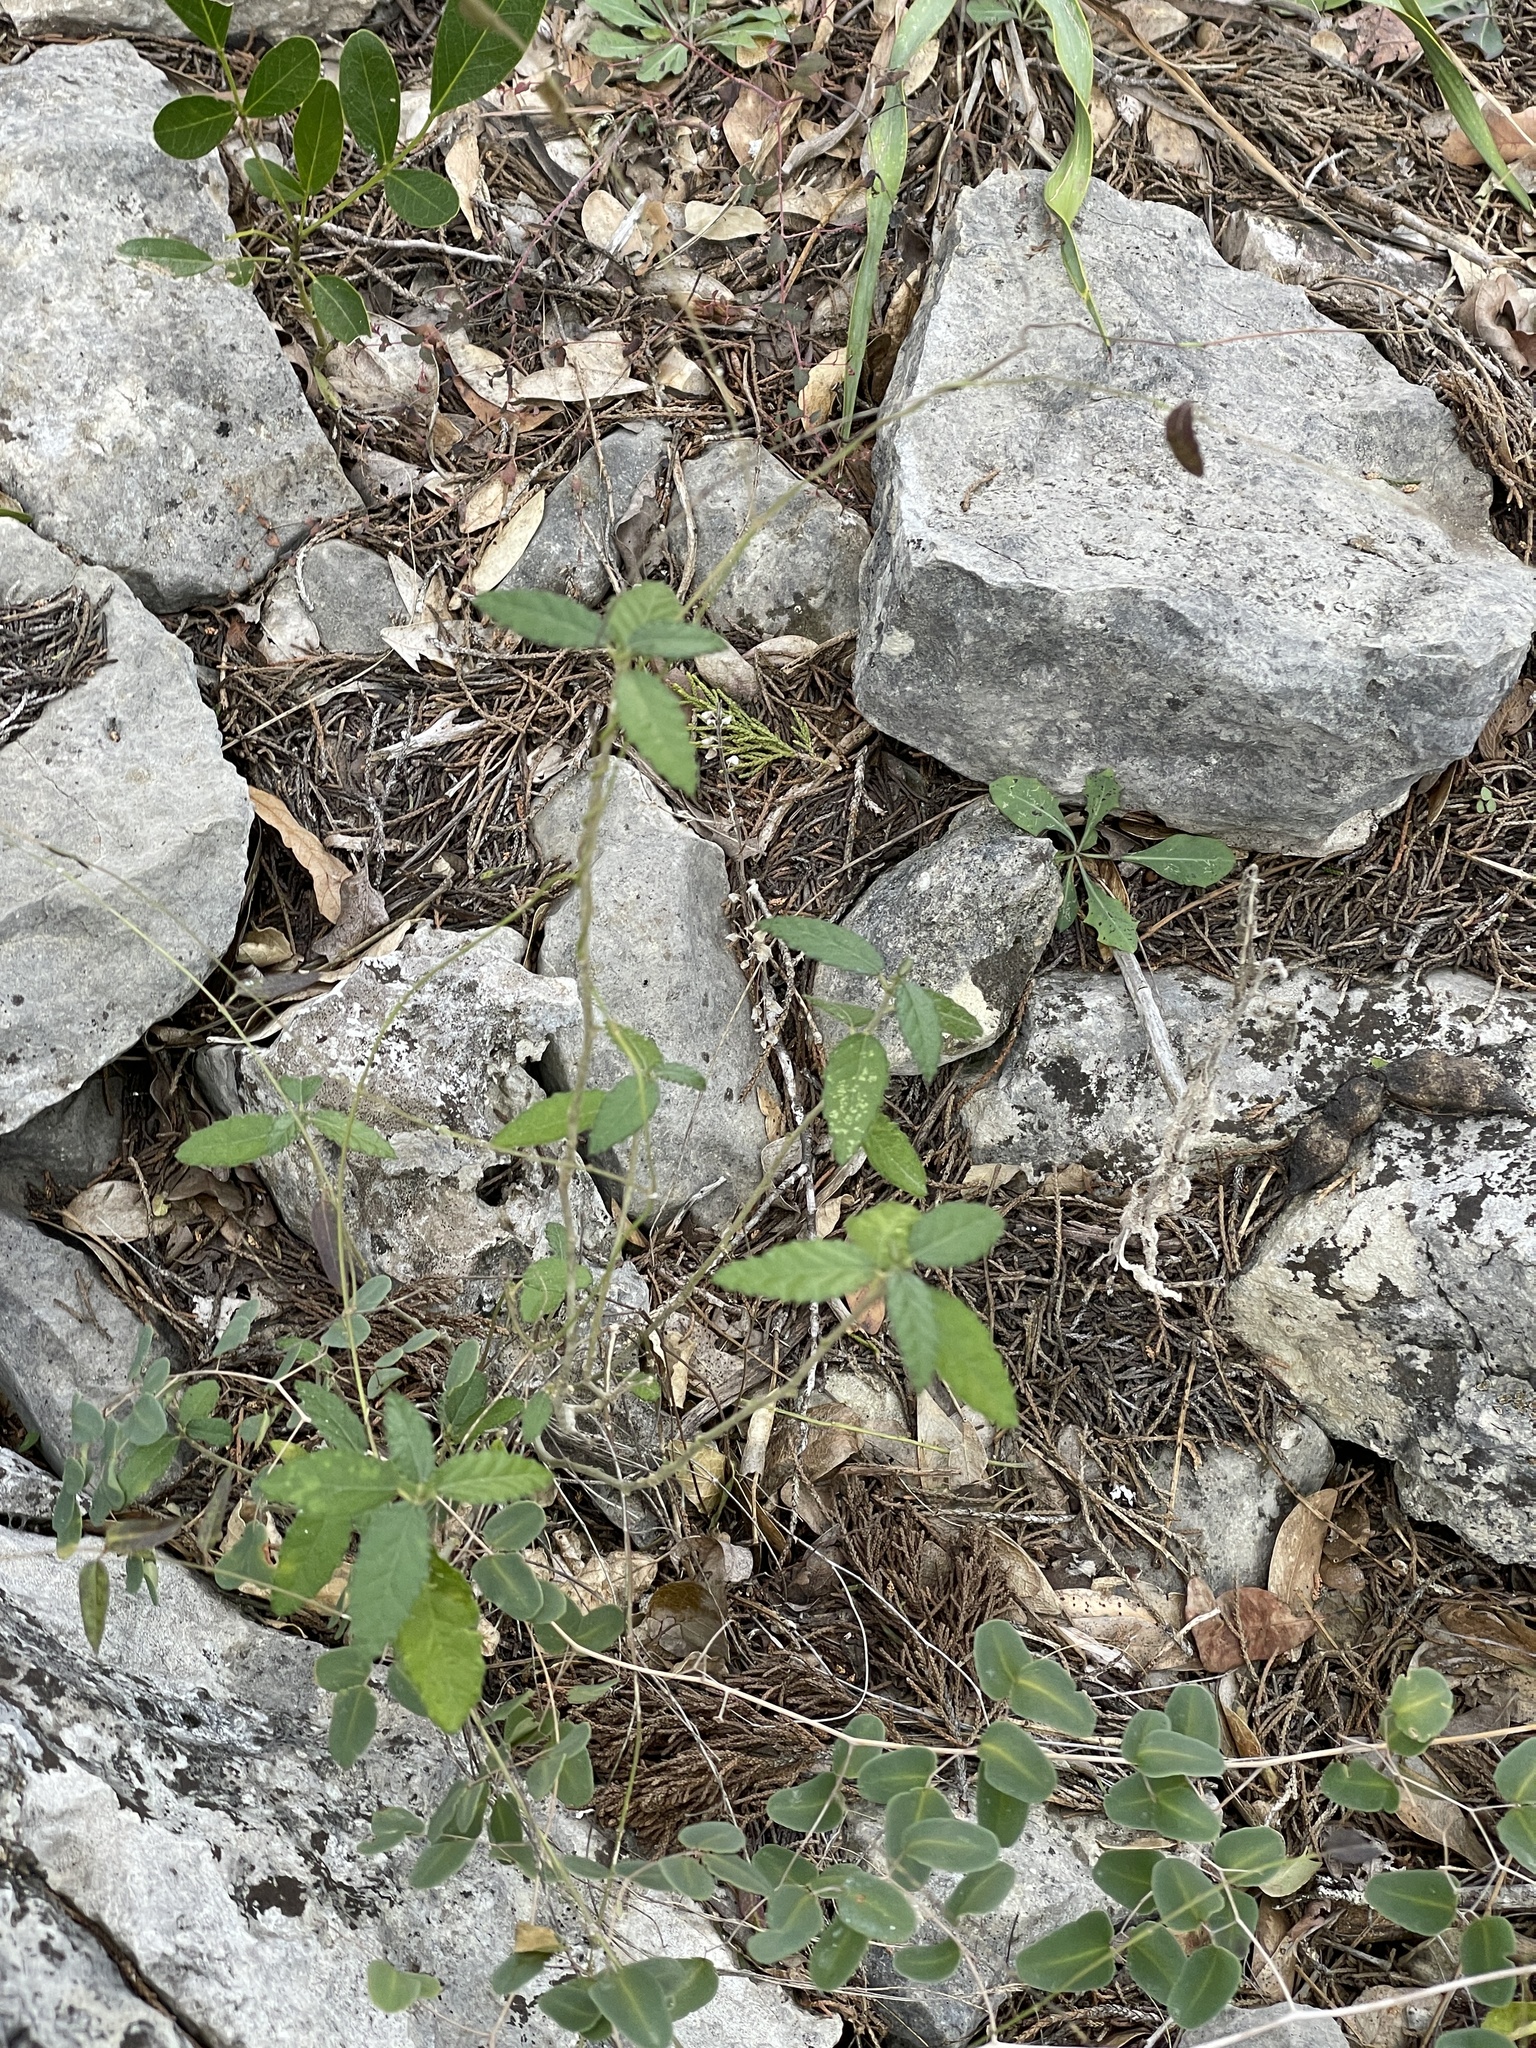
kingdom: Plantae
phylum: Tracheophyta
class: Magnoliopsida
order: Malpighiales
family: Euphorbiaceae
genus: Bernardia
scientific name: Bernardia myricifolia
